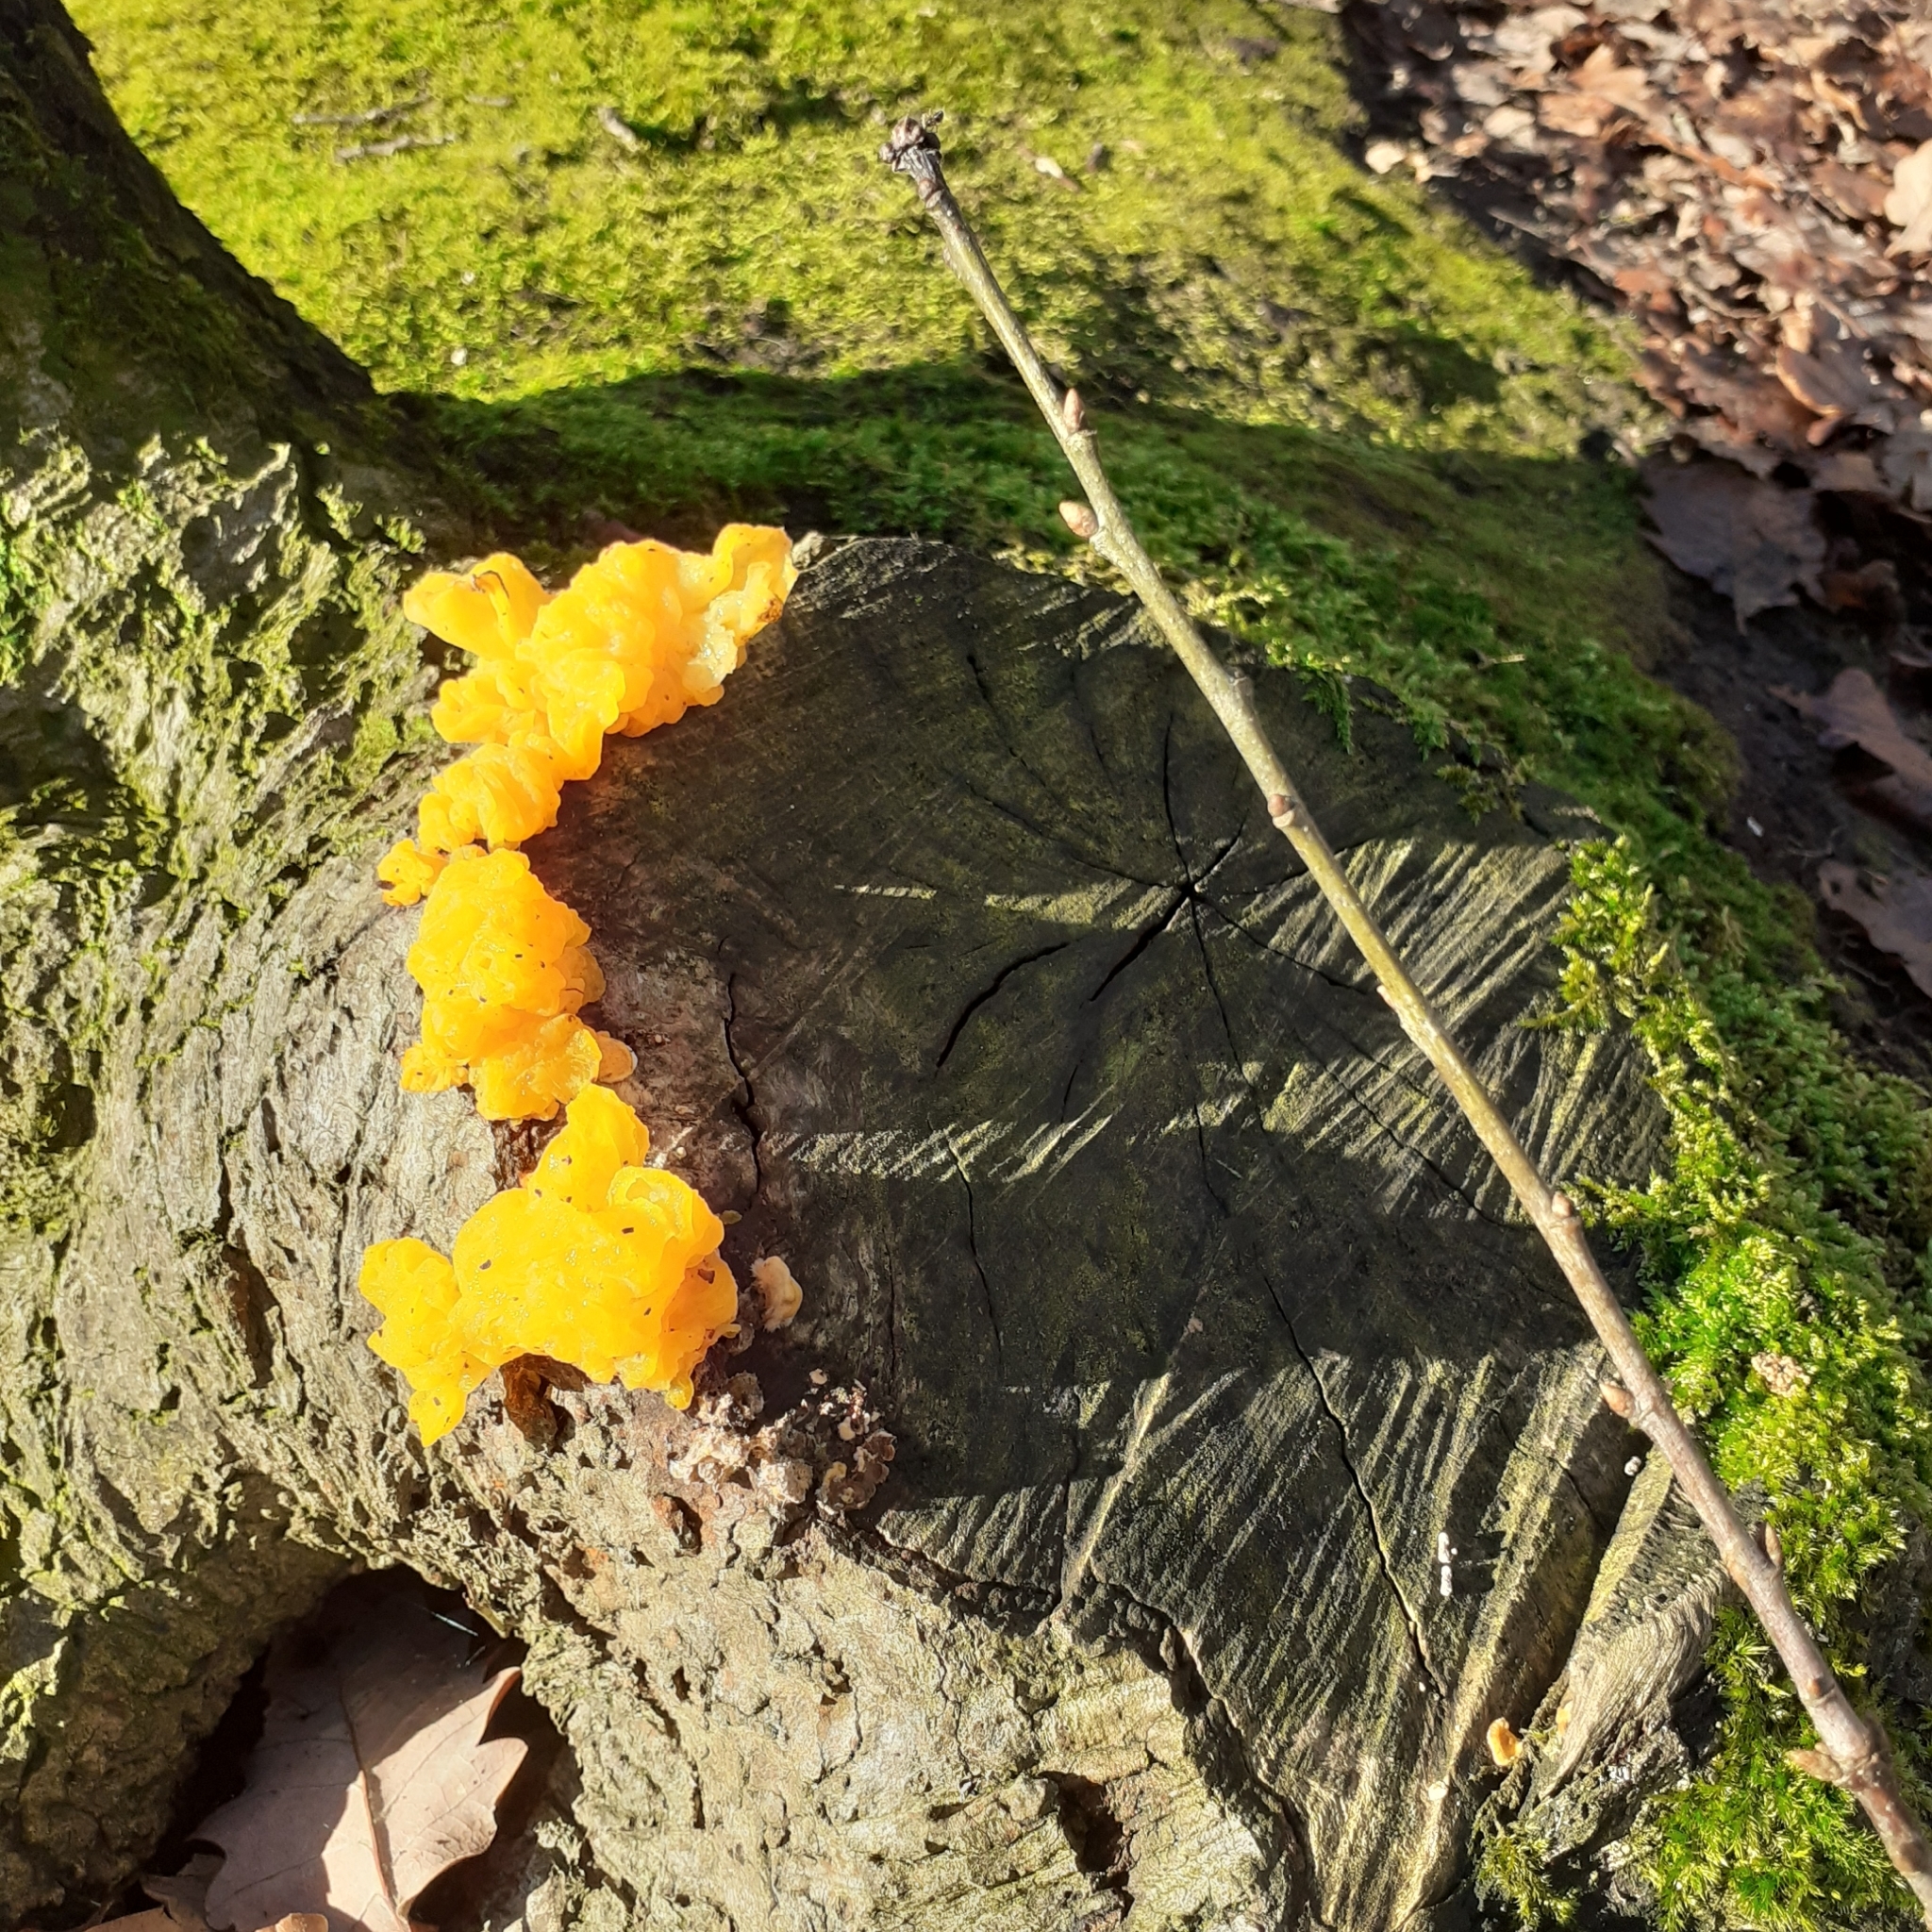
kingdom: Fungi
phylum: Basidiomycota
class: Tremellomycetes
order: Tremellales
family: Naemateliaceae
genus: Naematelia
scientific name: Naematelia aurantia
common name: Golden ear
